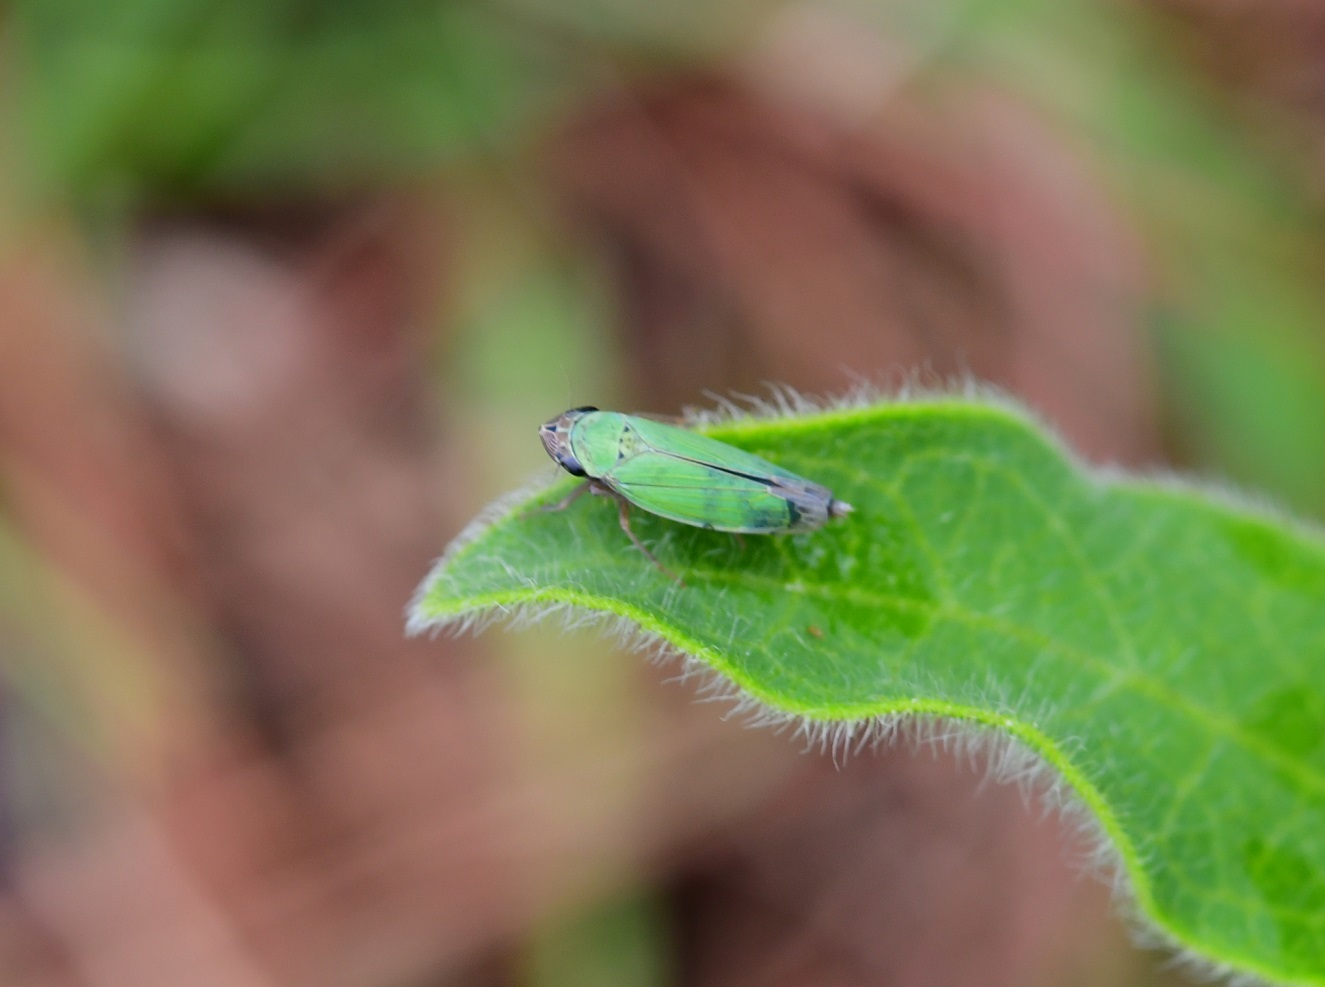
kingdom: Animalia
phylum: Arthropoda
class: Insecta
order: Hemiptera
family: Cicadellidae
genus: Chlorogonalia
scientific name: Chlorogonalia losoplanensis
